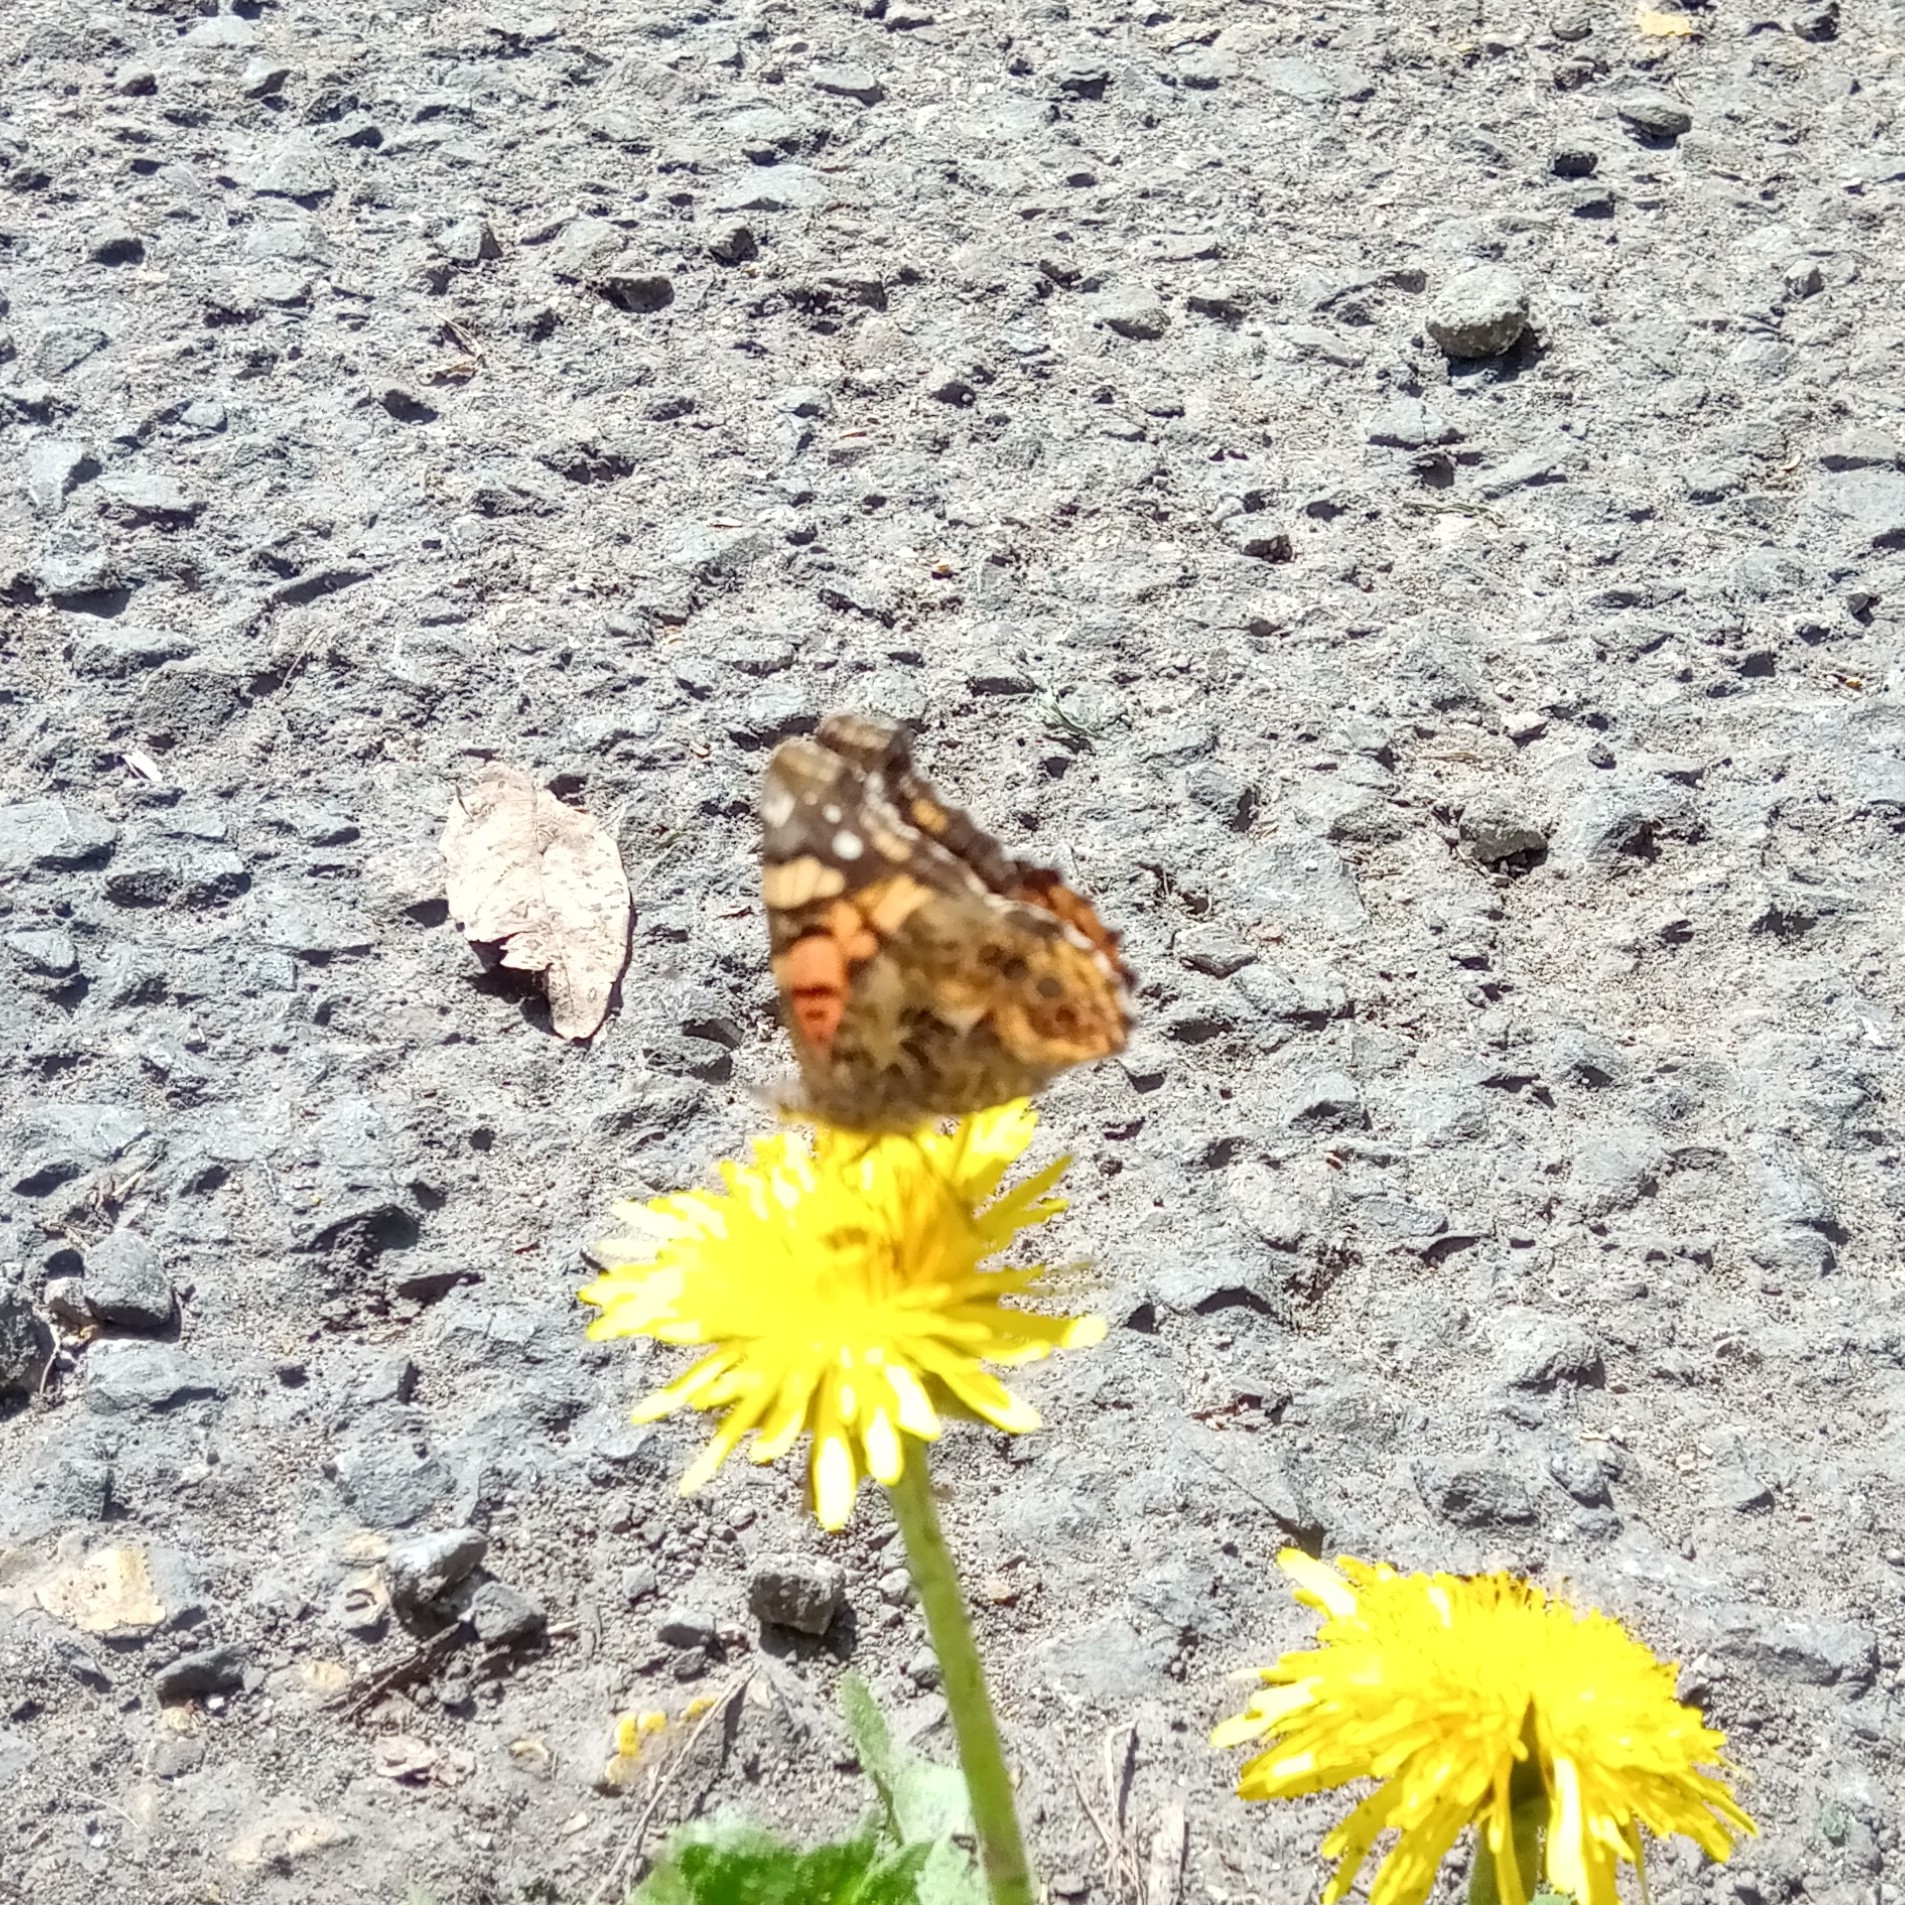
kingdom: Animalia
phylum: Arthropoda
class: Insecta
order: Lepidoptera
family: Nymphalidae
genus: Vanessa
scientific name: Vanessa annabella
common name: West coast lady
